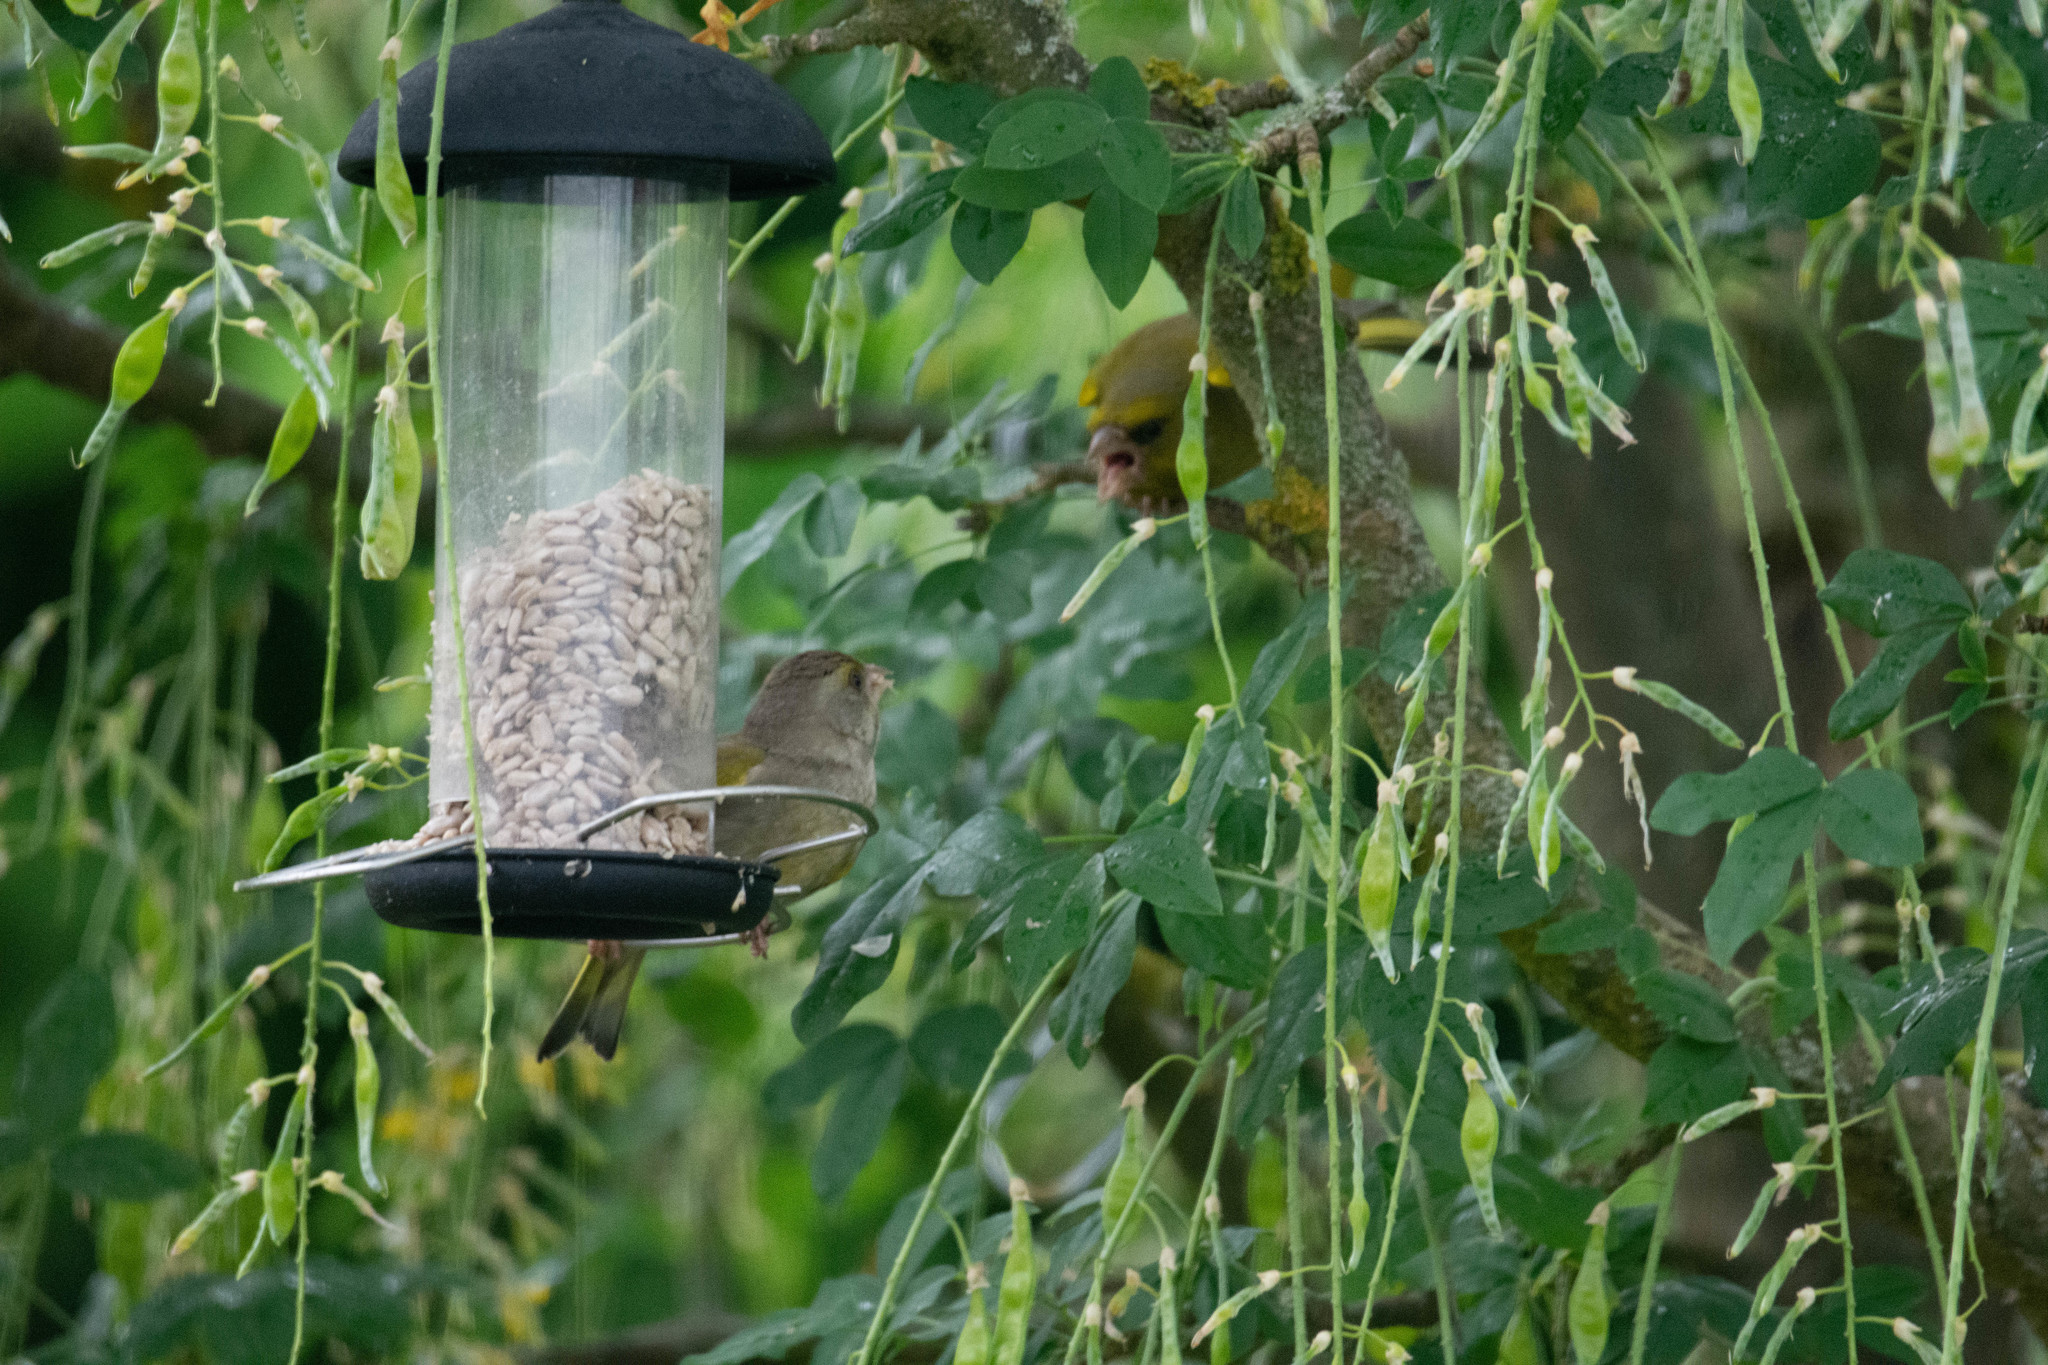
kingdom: Plantae
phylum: Tracheophyta
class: Liliopsida
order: Poales
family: Poaceae
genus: Chloris
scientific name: Chloris chloris
